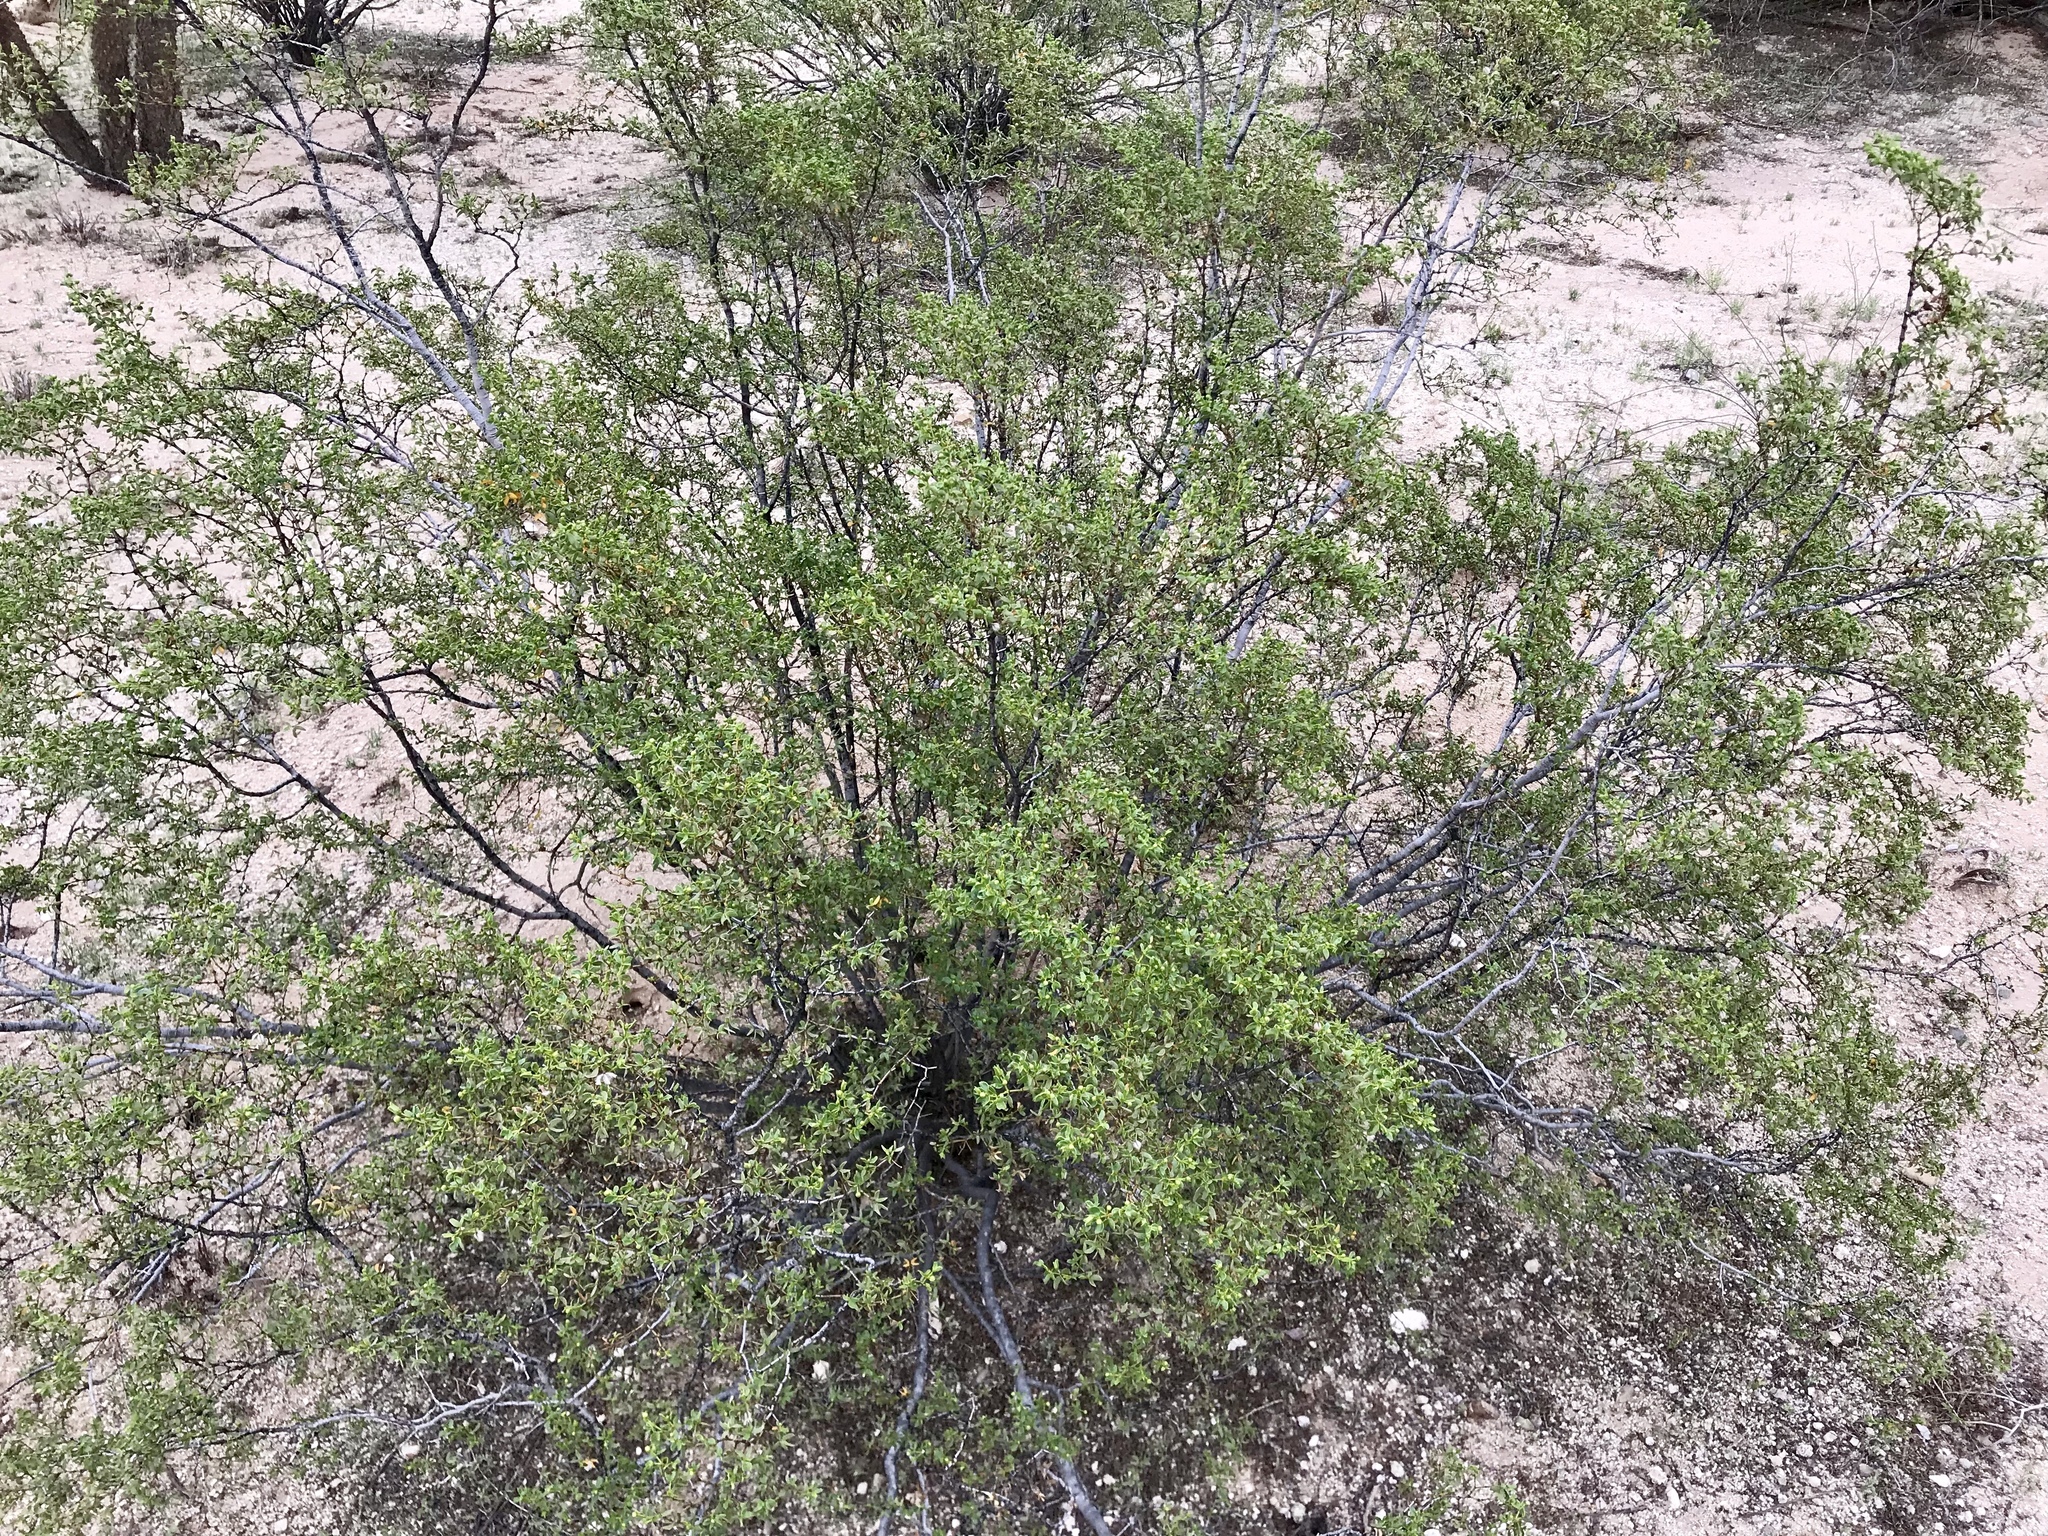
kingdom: Plantae
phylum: Tracheophyta
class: Magnoliopsida
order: Zygophyllales
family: Zygophyllaceae
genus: Larrea
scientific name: Larrea tridentata
